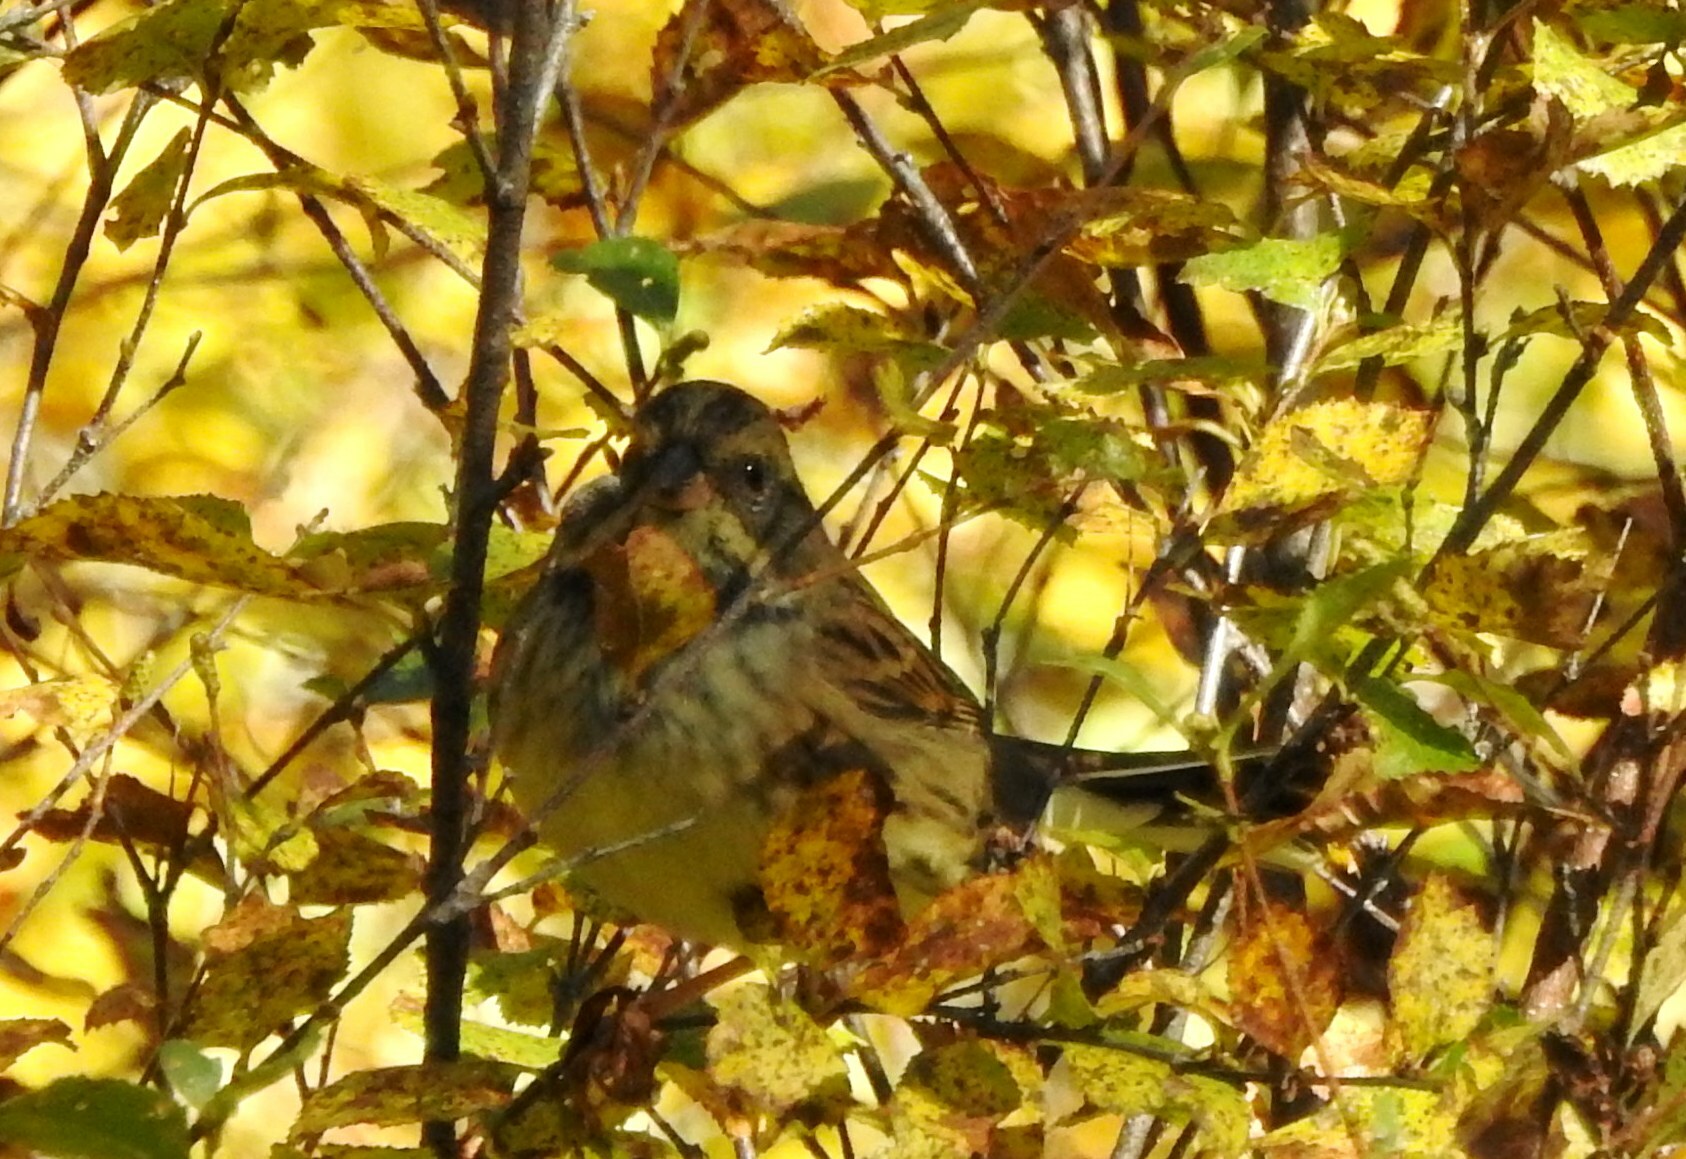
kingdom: Animalia
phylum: Chordata
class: Aves
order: Passeriformes
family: Emberizidae
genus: Emberiza
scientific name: Emberiza spodocephala
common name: Black-faced bunting
